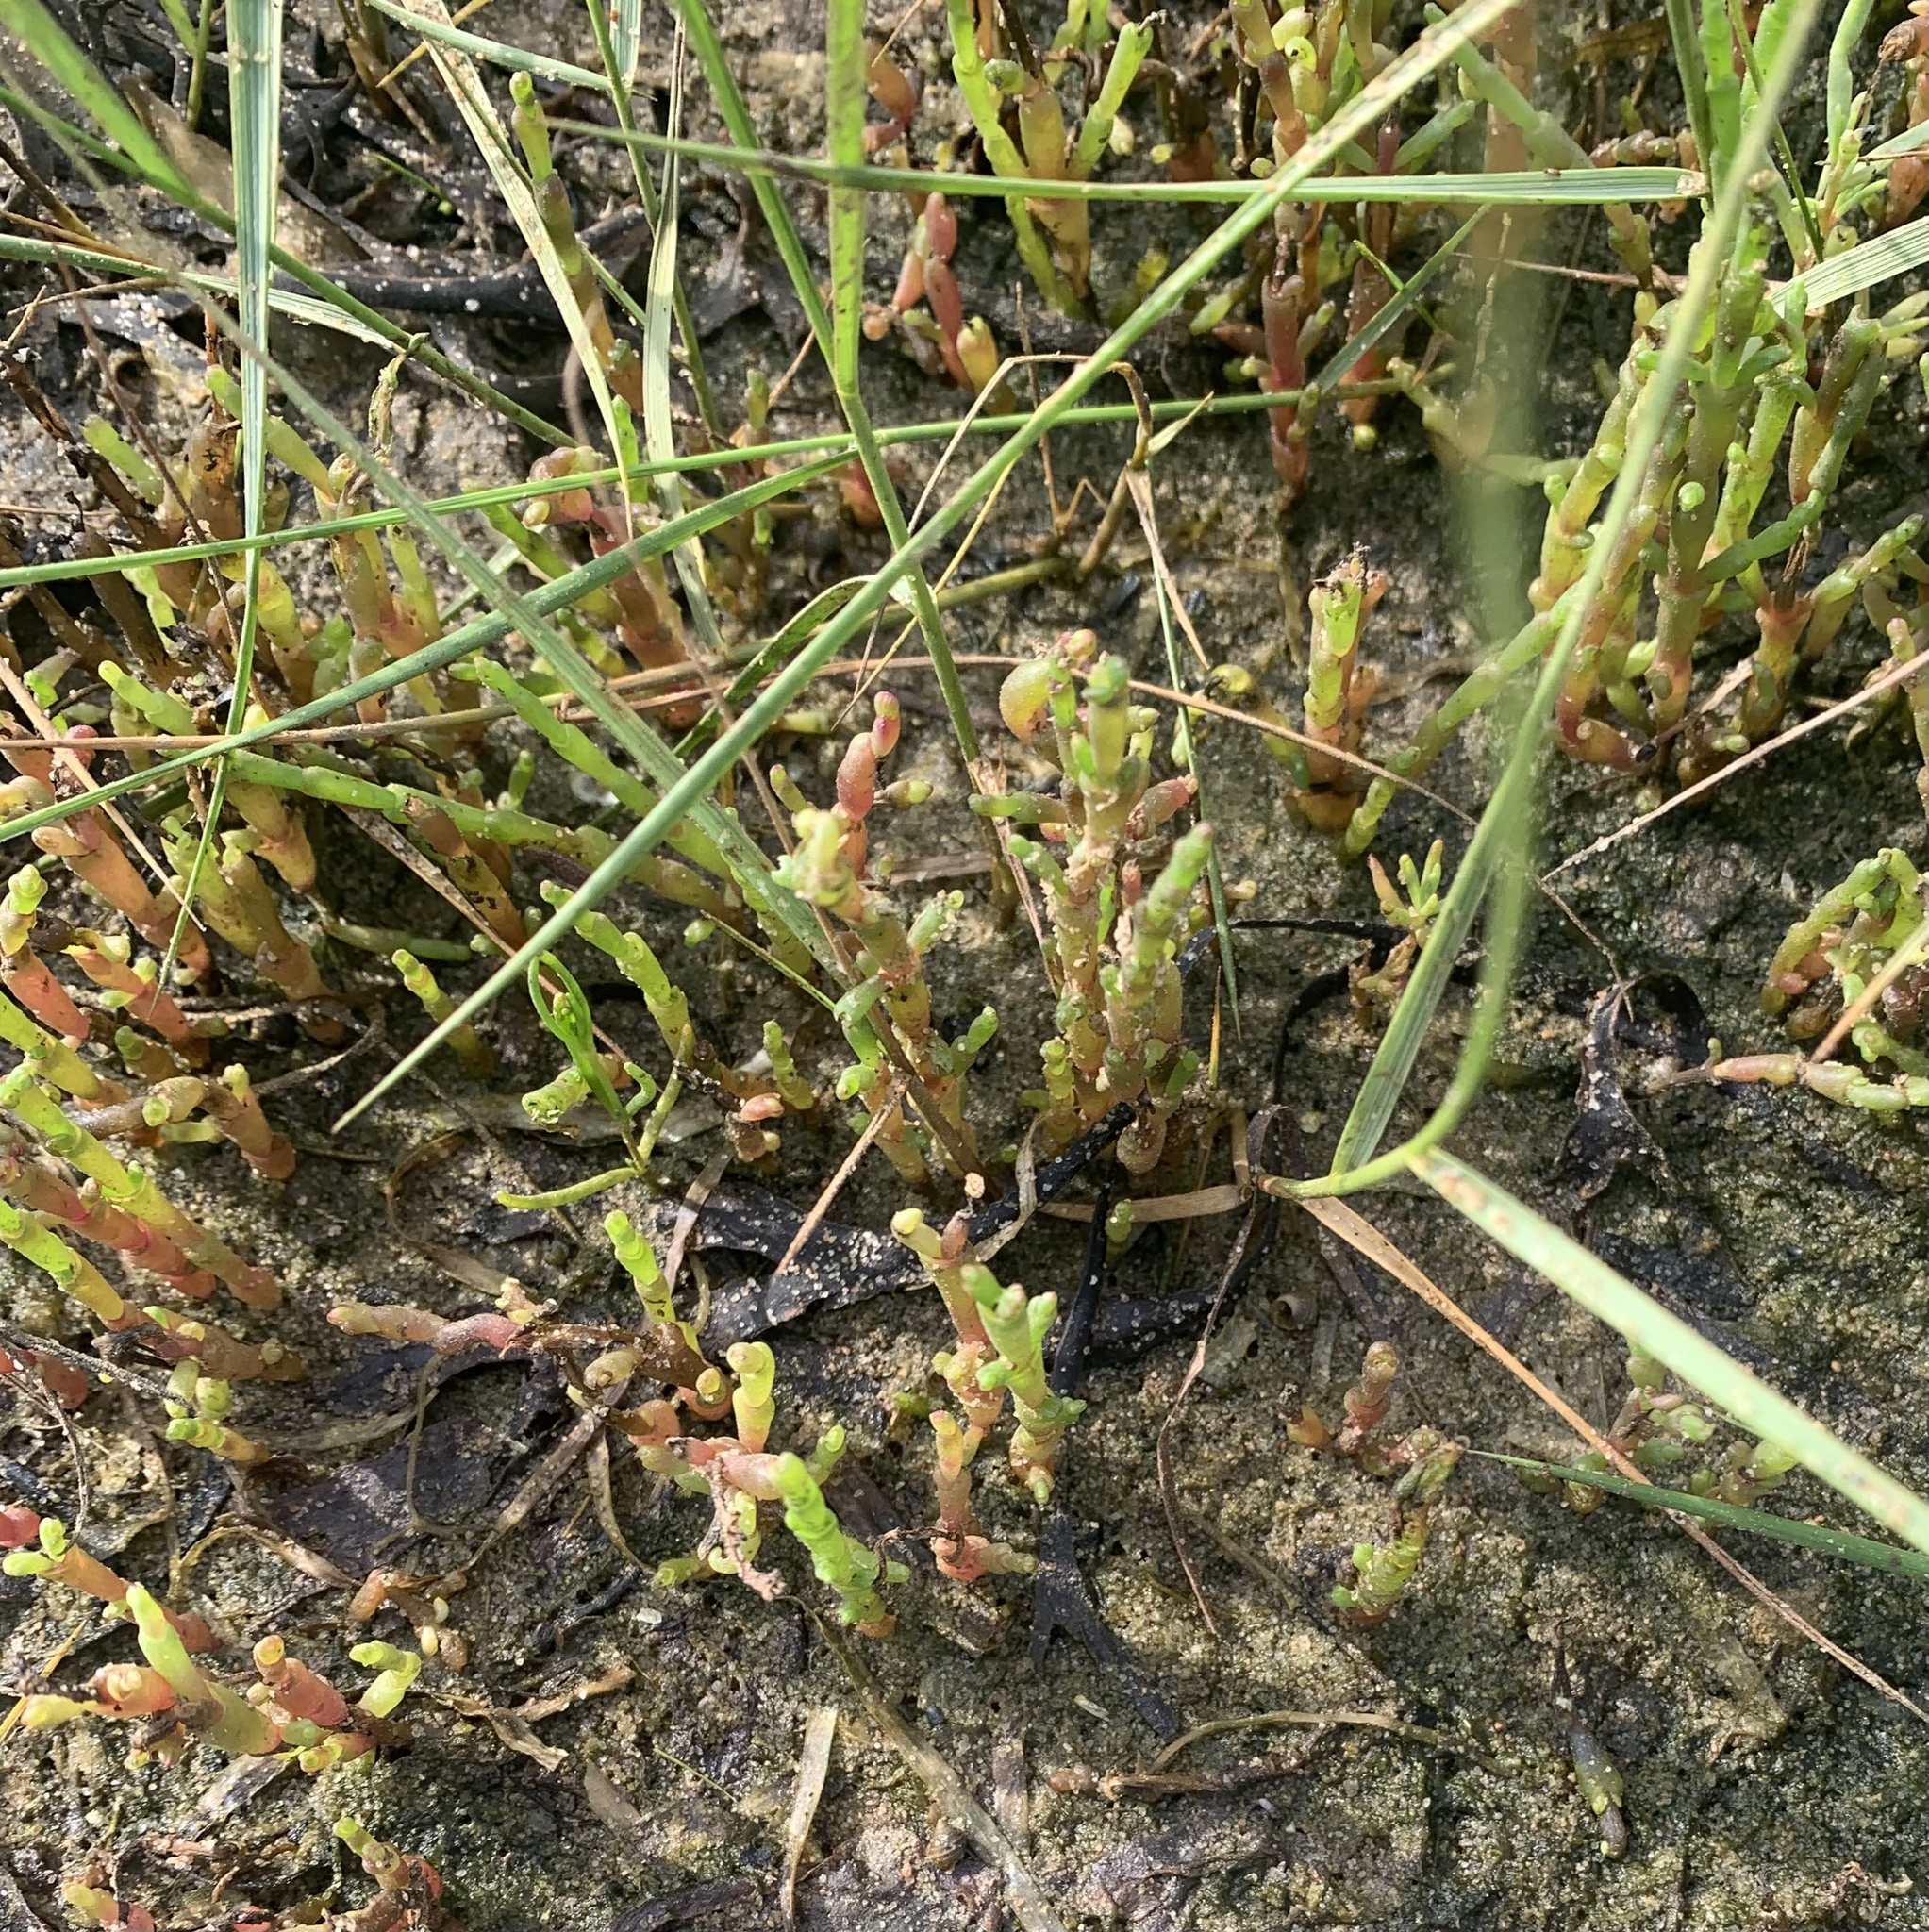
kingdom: Plantae
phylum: Tracheophyta
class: Magnoliopsida
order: Caryophyllales
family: Amaranthaceae
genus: Salicornia
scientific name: Salicornia europaea
